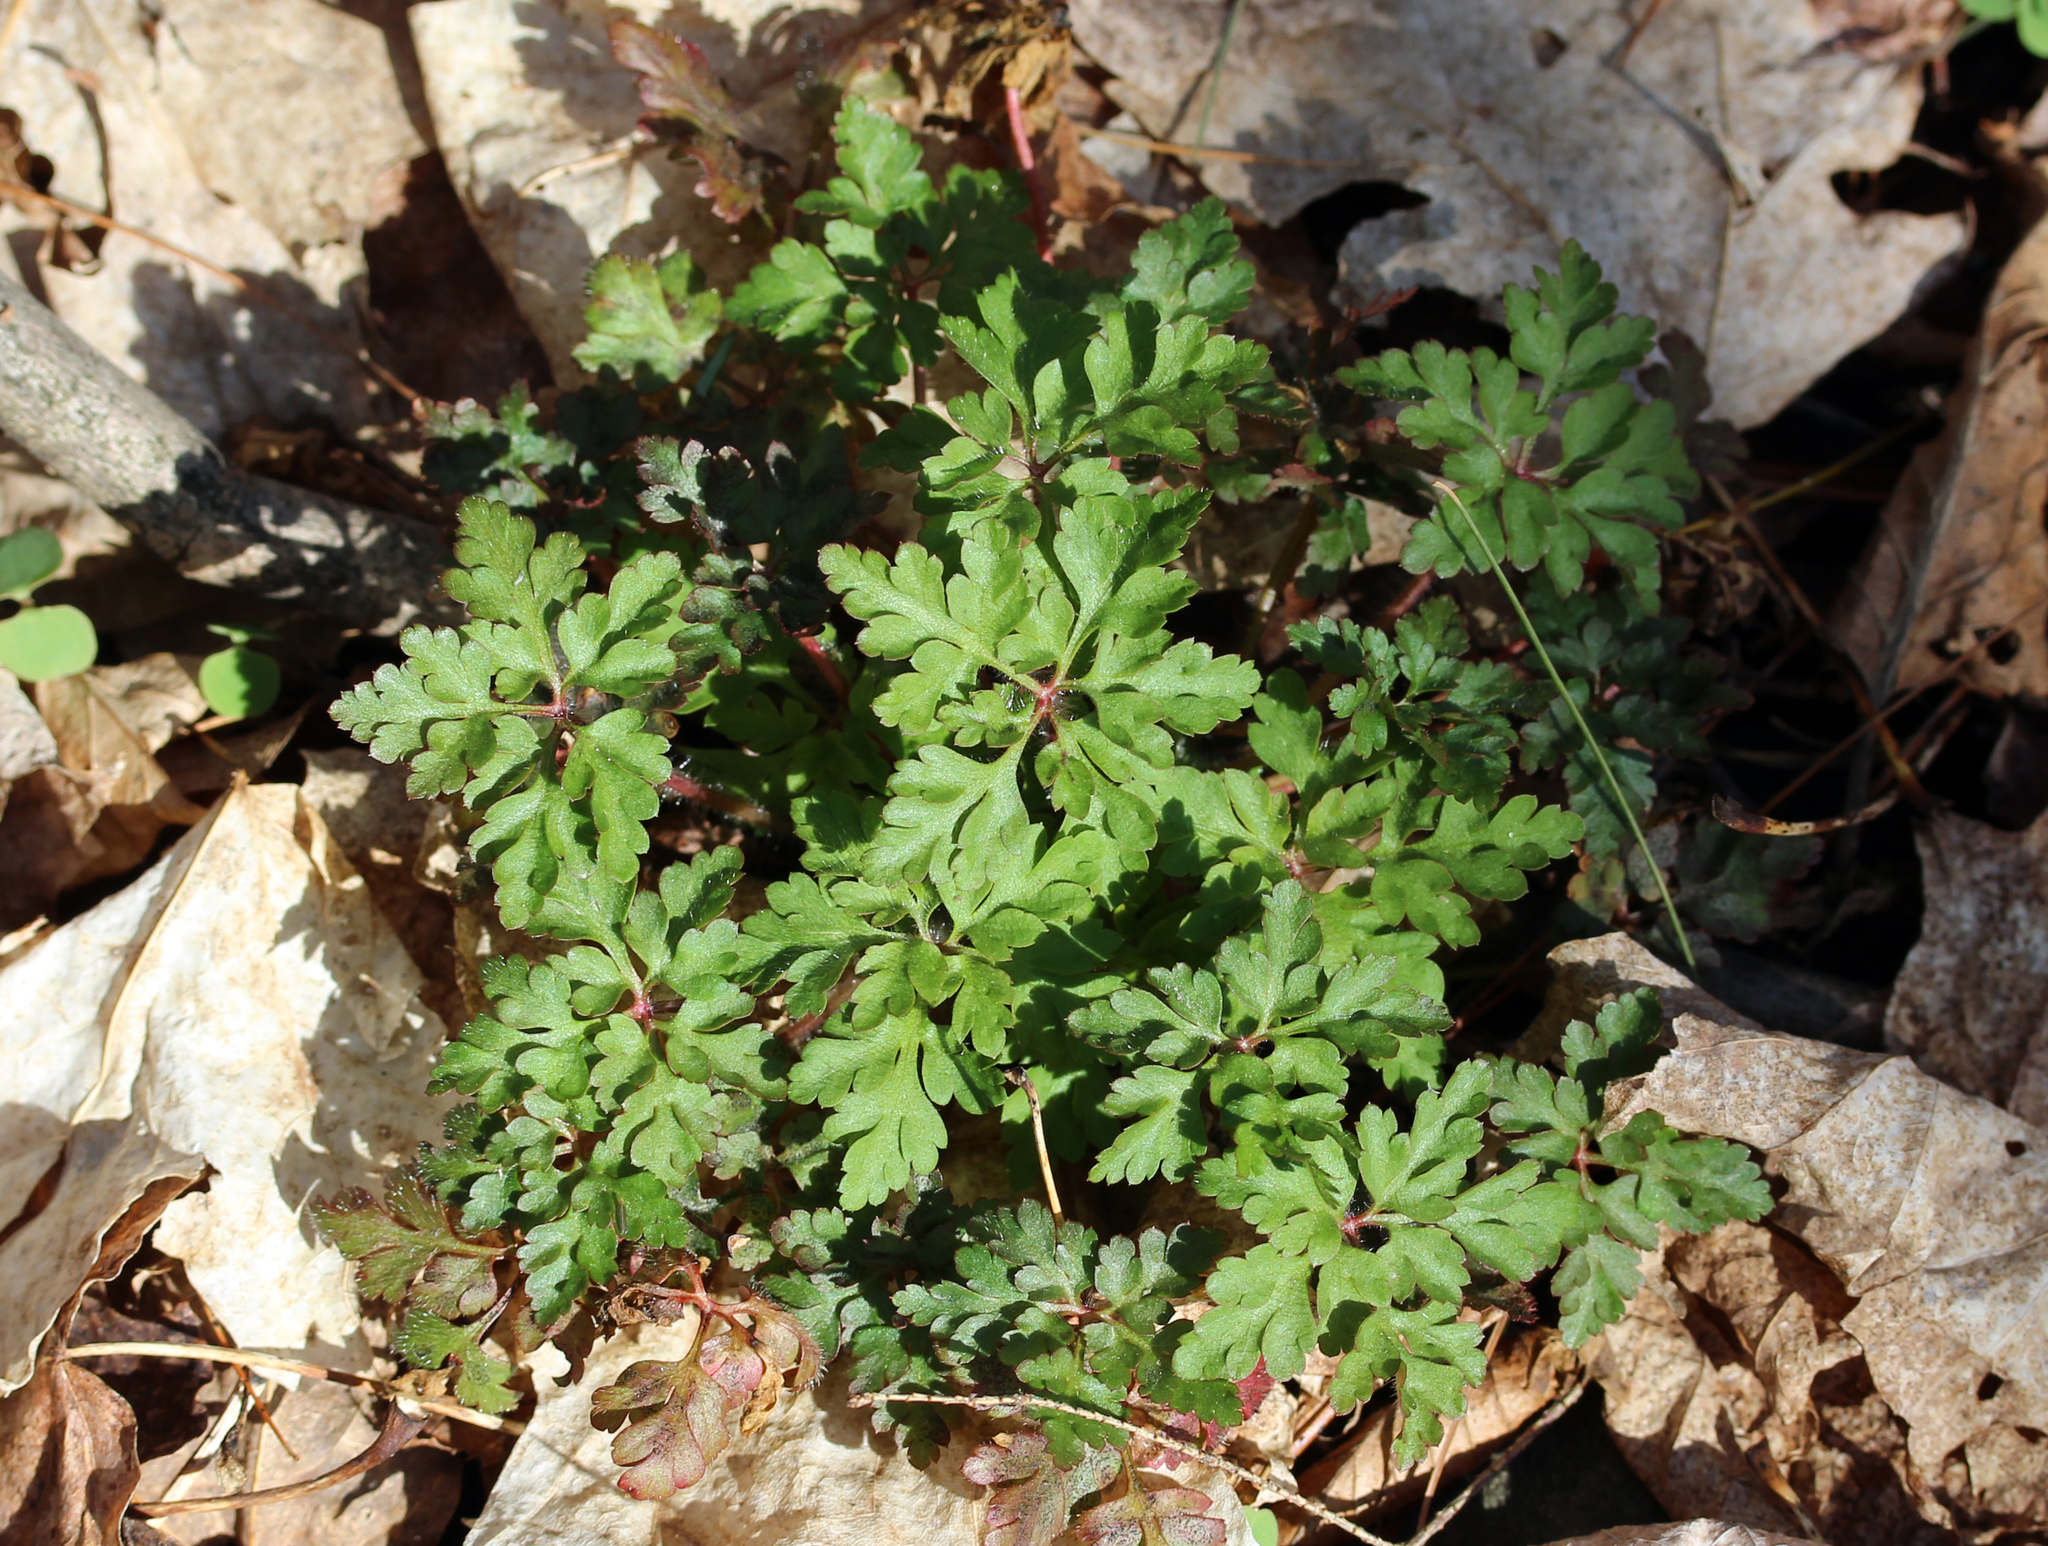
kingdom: Plantae
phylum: Tracheophyta
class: Magnoliopsida
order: Geraniales
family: Geraniaceae
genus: Geranium
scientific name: Geranium robertianum
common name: Herb-robert
